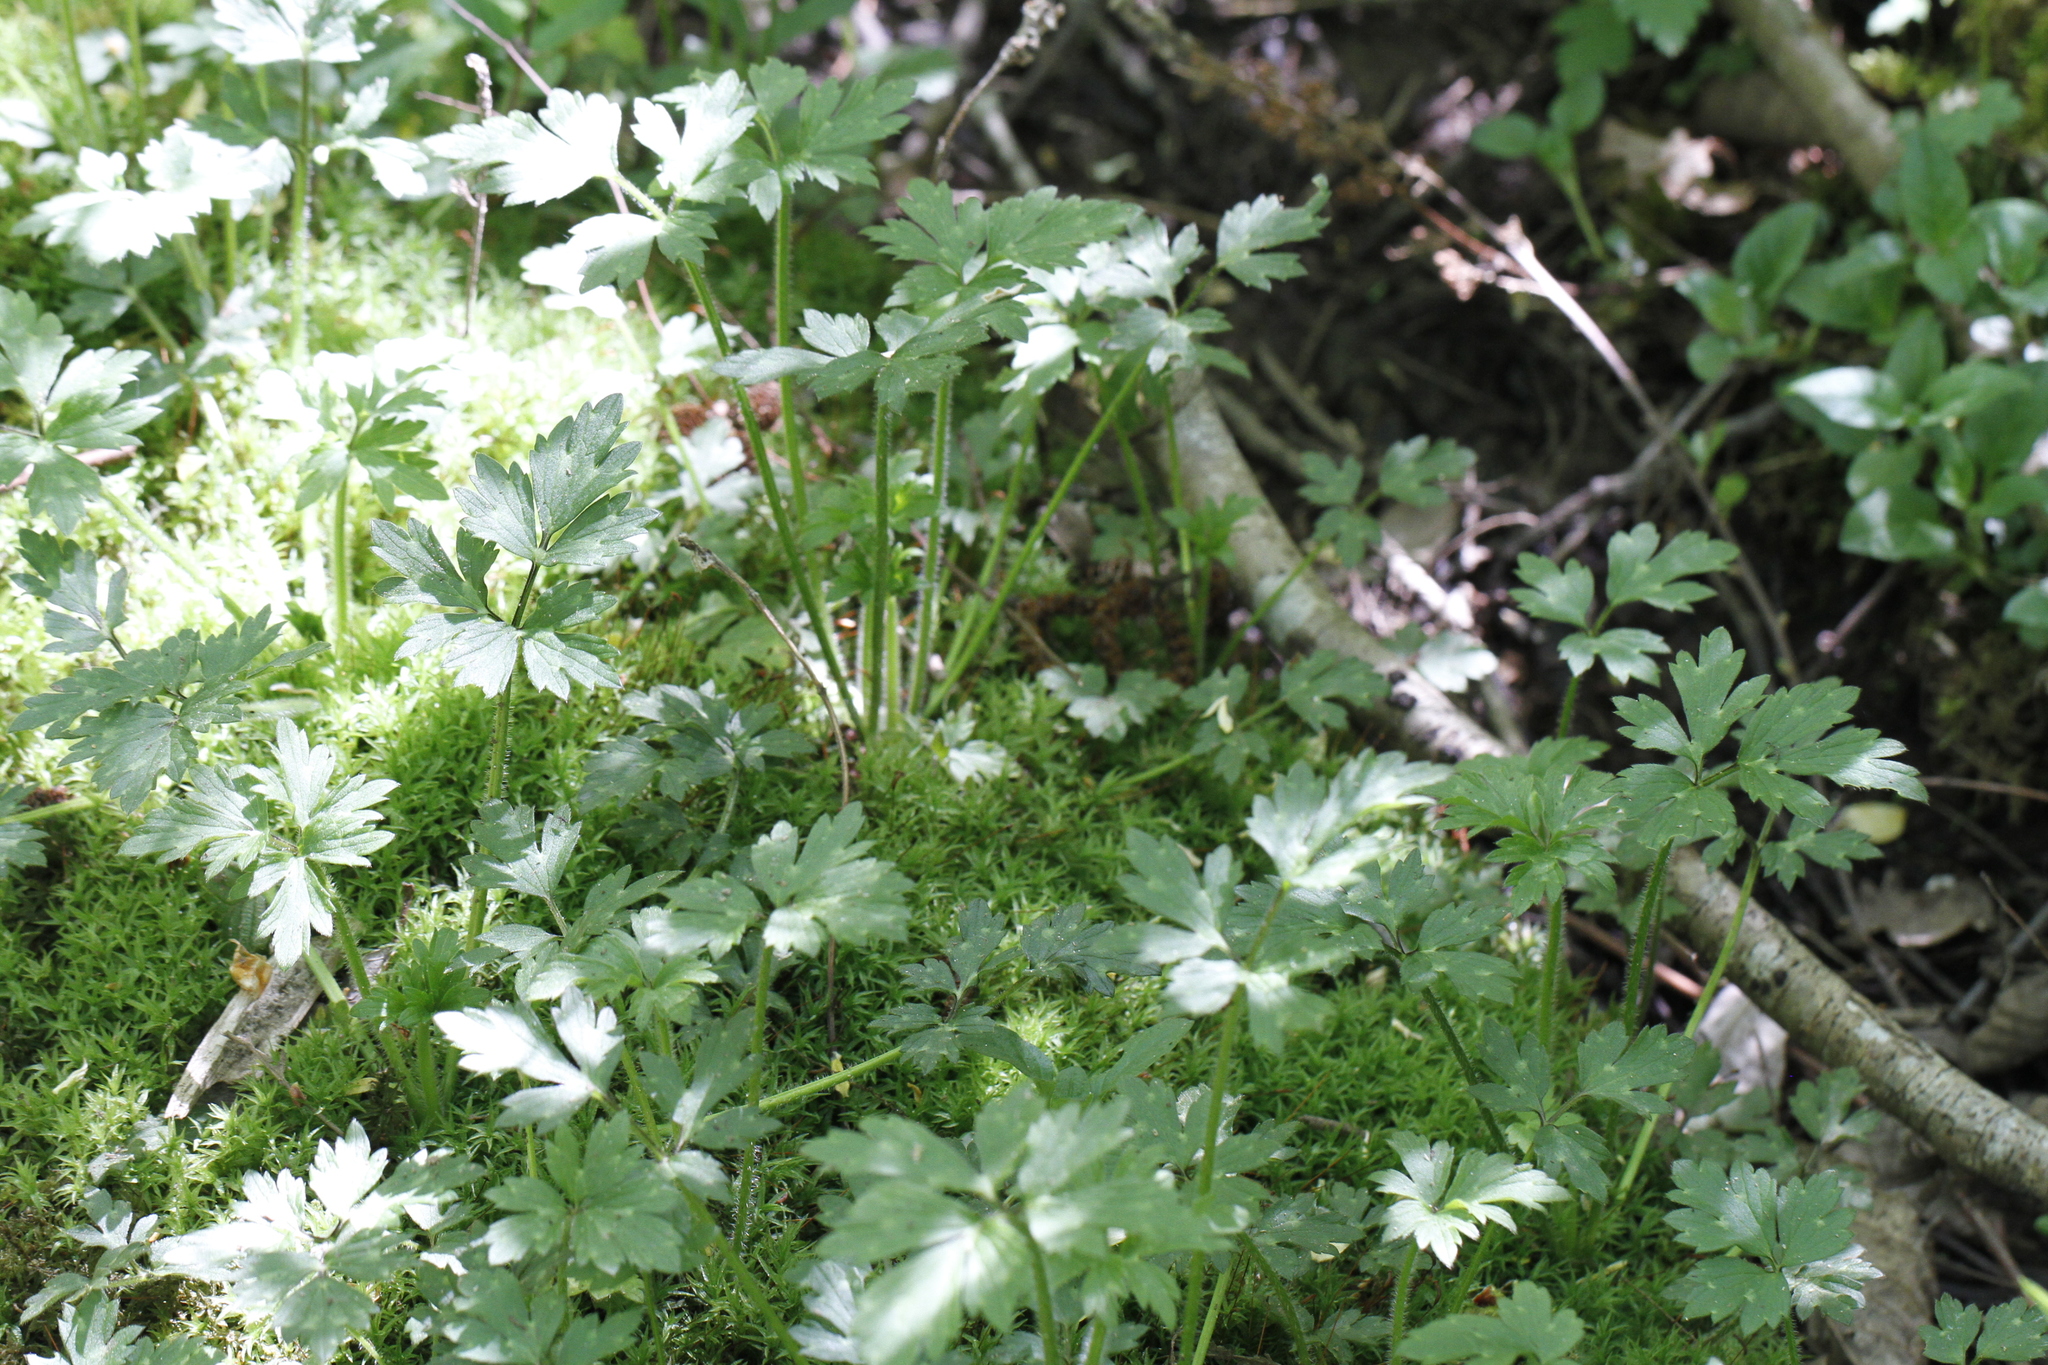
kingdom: Plantae
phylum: Tracheophyta
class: Magnoliopsida
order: Ranunculales
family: Ranunculaceae
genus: Ranunculus
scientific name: Ranunculus repens
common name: Creeping buttercup
